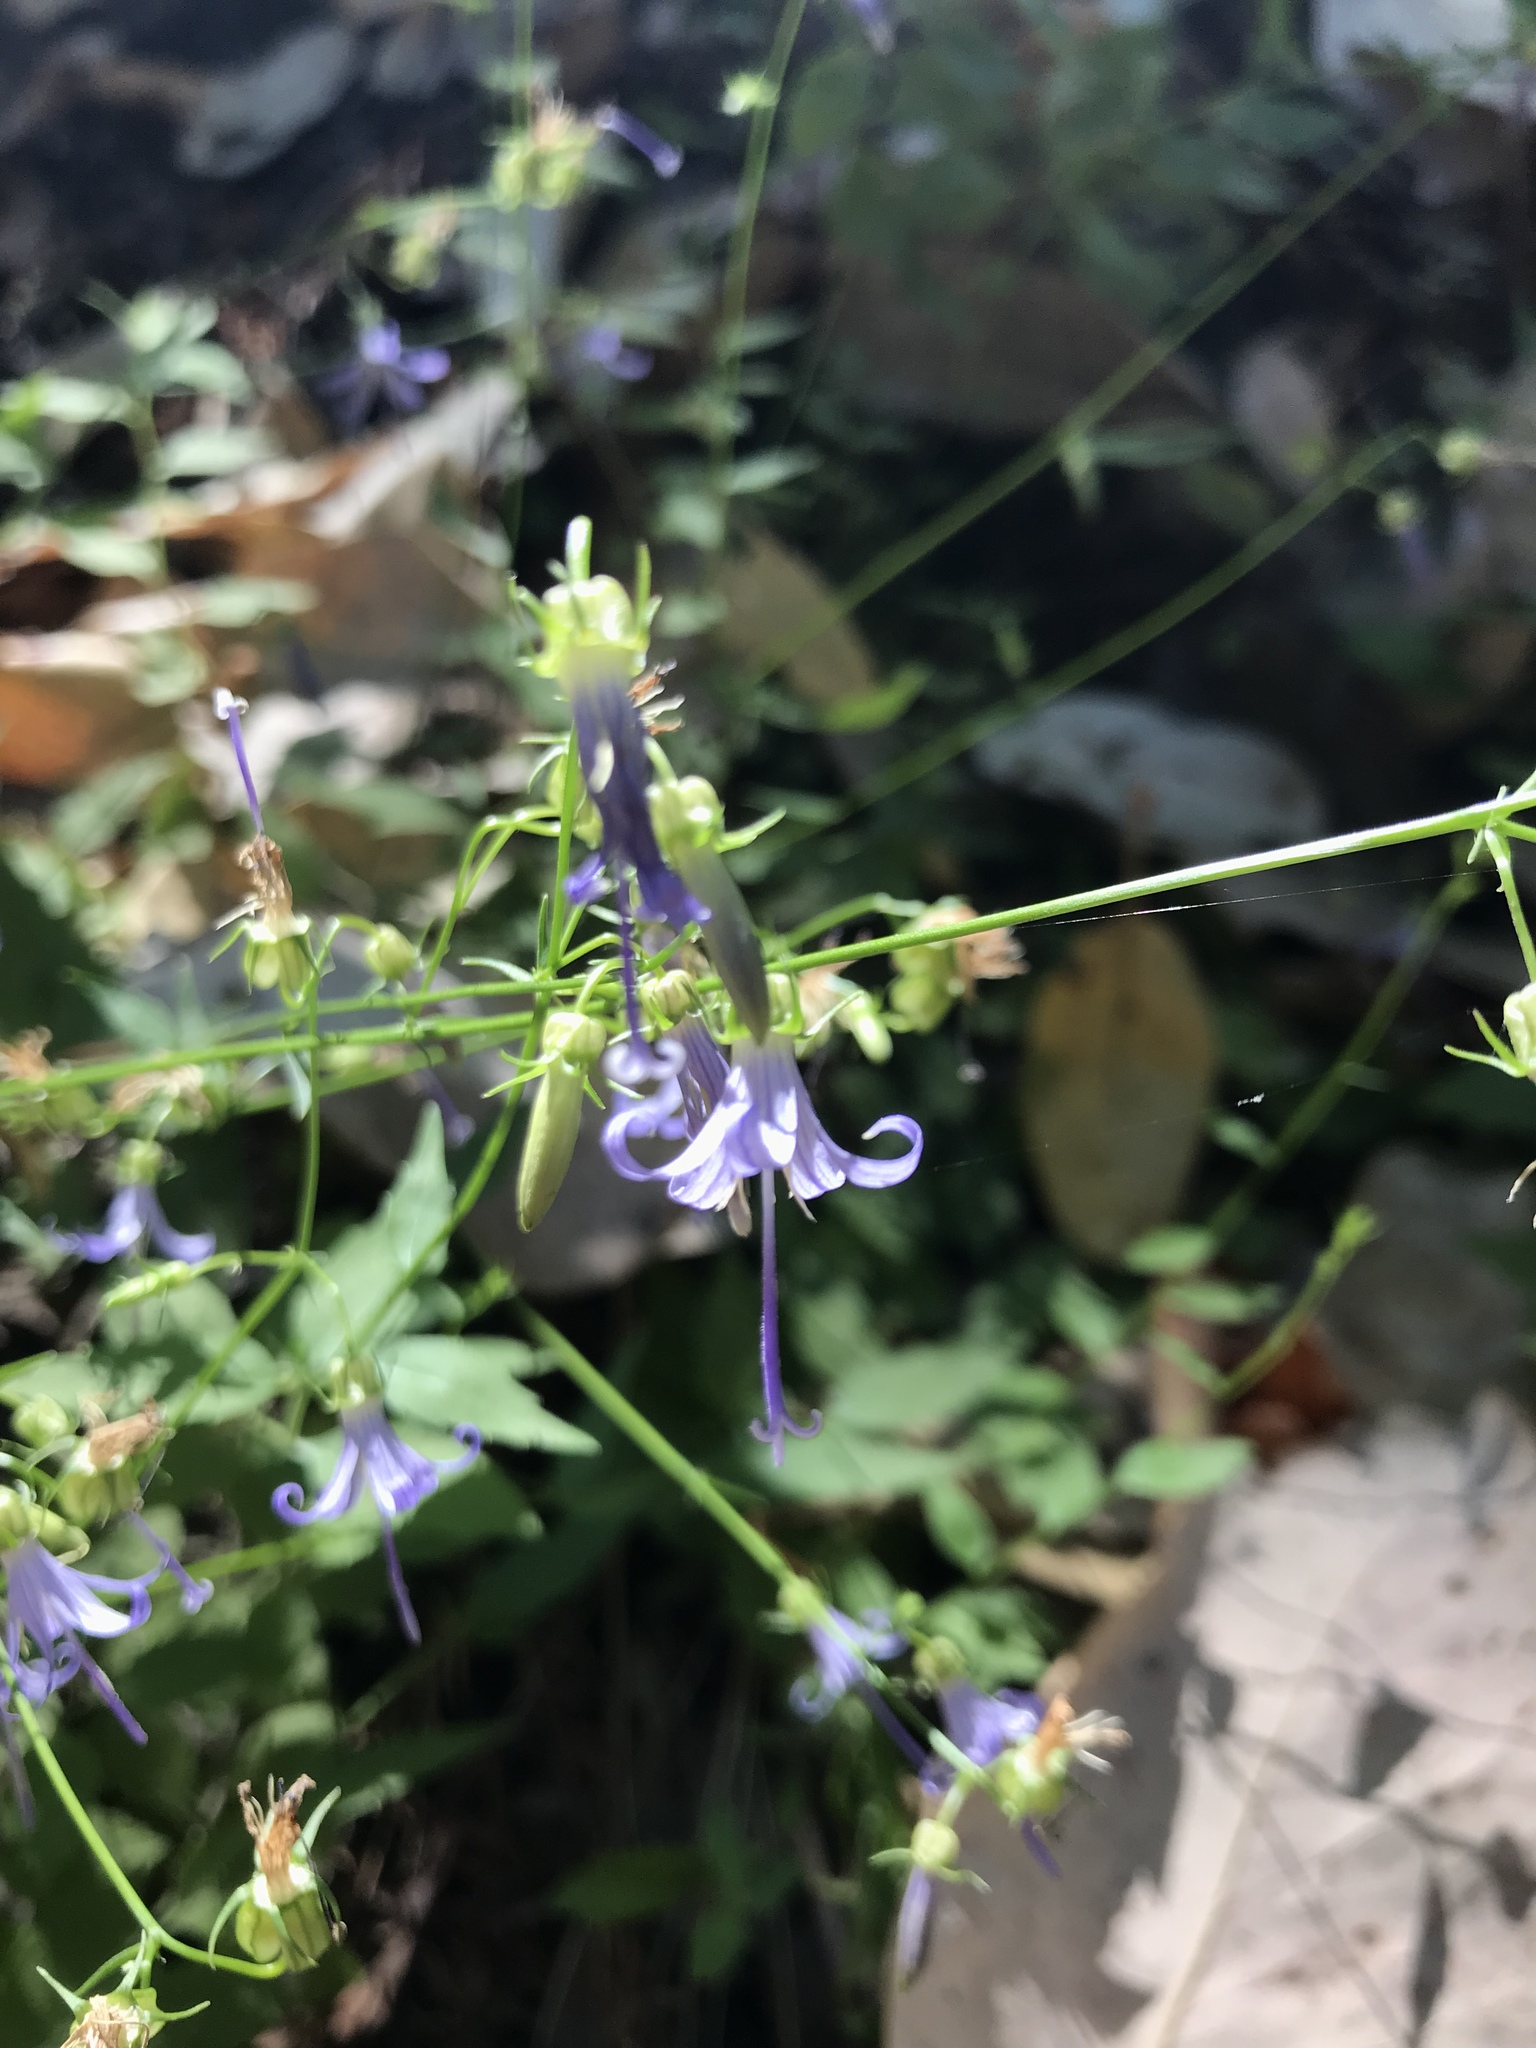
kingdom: Plantae
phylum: Tracheophyta
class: Magnoliopsida
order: Asterales
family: Campanulaceae
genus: Smithiastrum
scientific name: Smithiastrum prenanthoides
